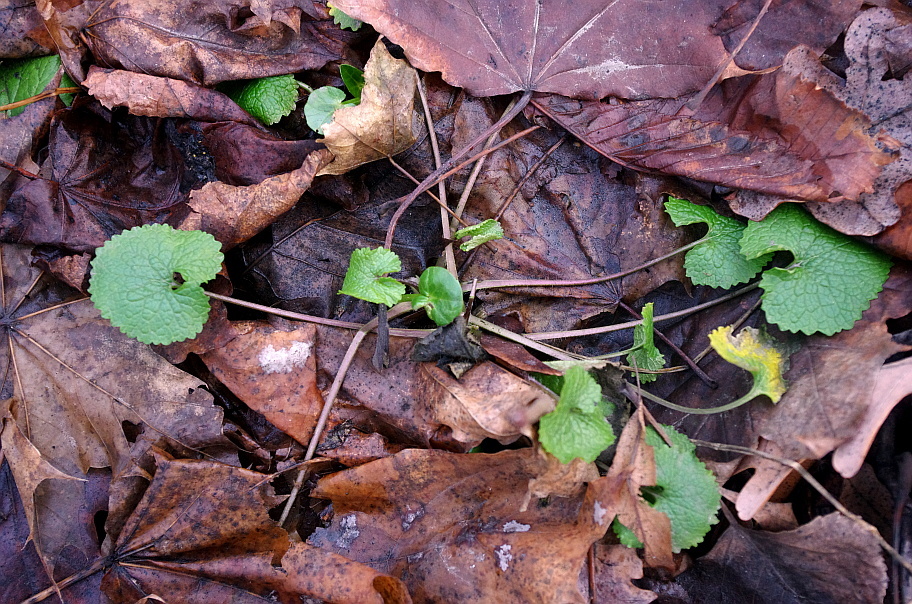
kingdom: Plantae
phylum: Tracheophyta
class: Magnoliopsida
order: Brassicales
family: Brassicaceae
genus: Alliaria
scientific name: Alliaria petiolata
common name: Garlic mustard
